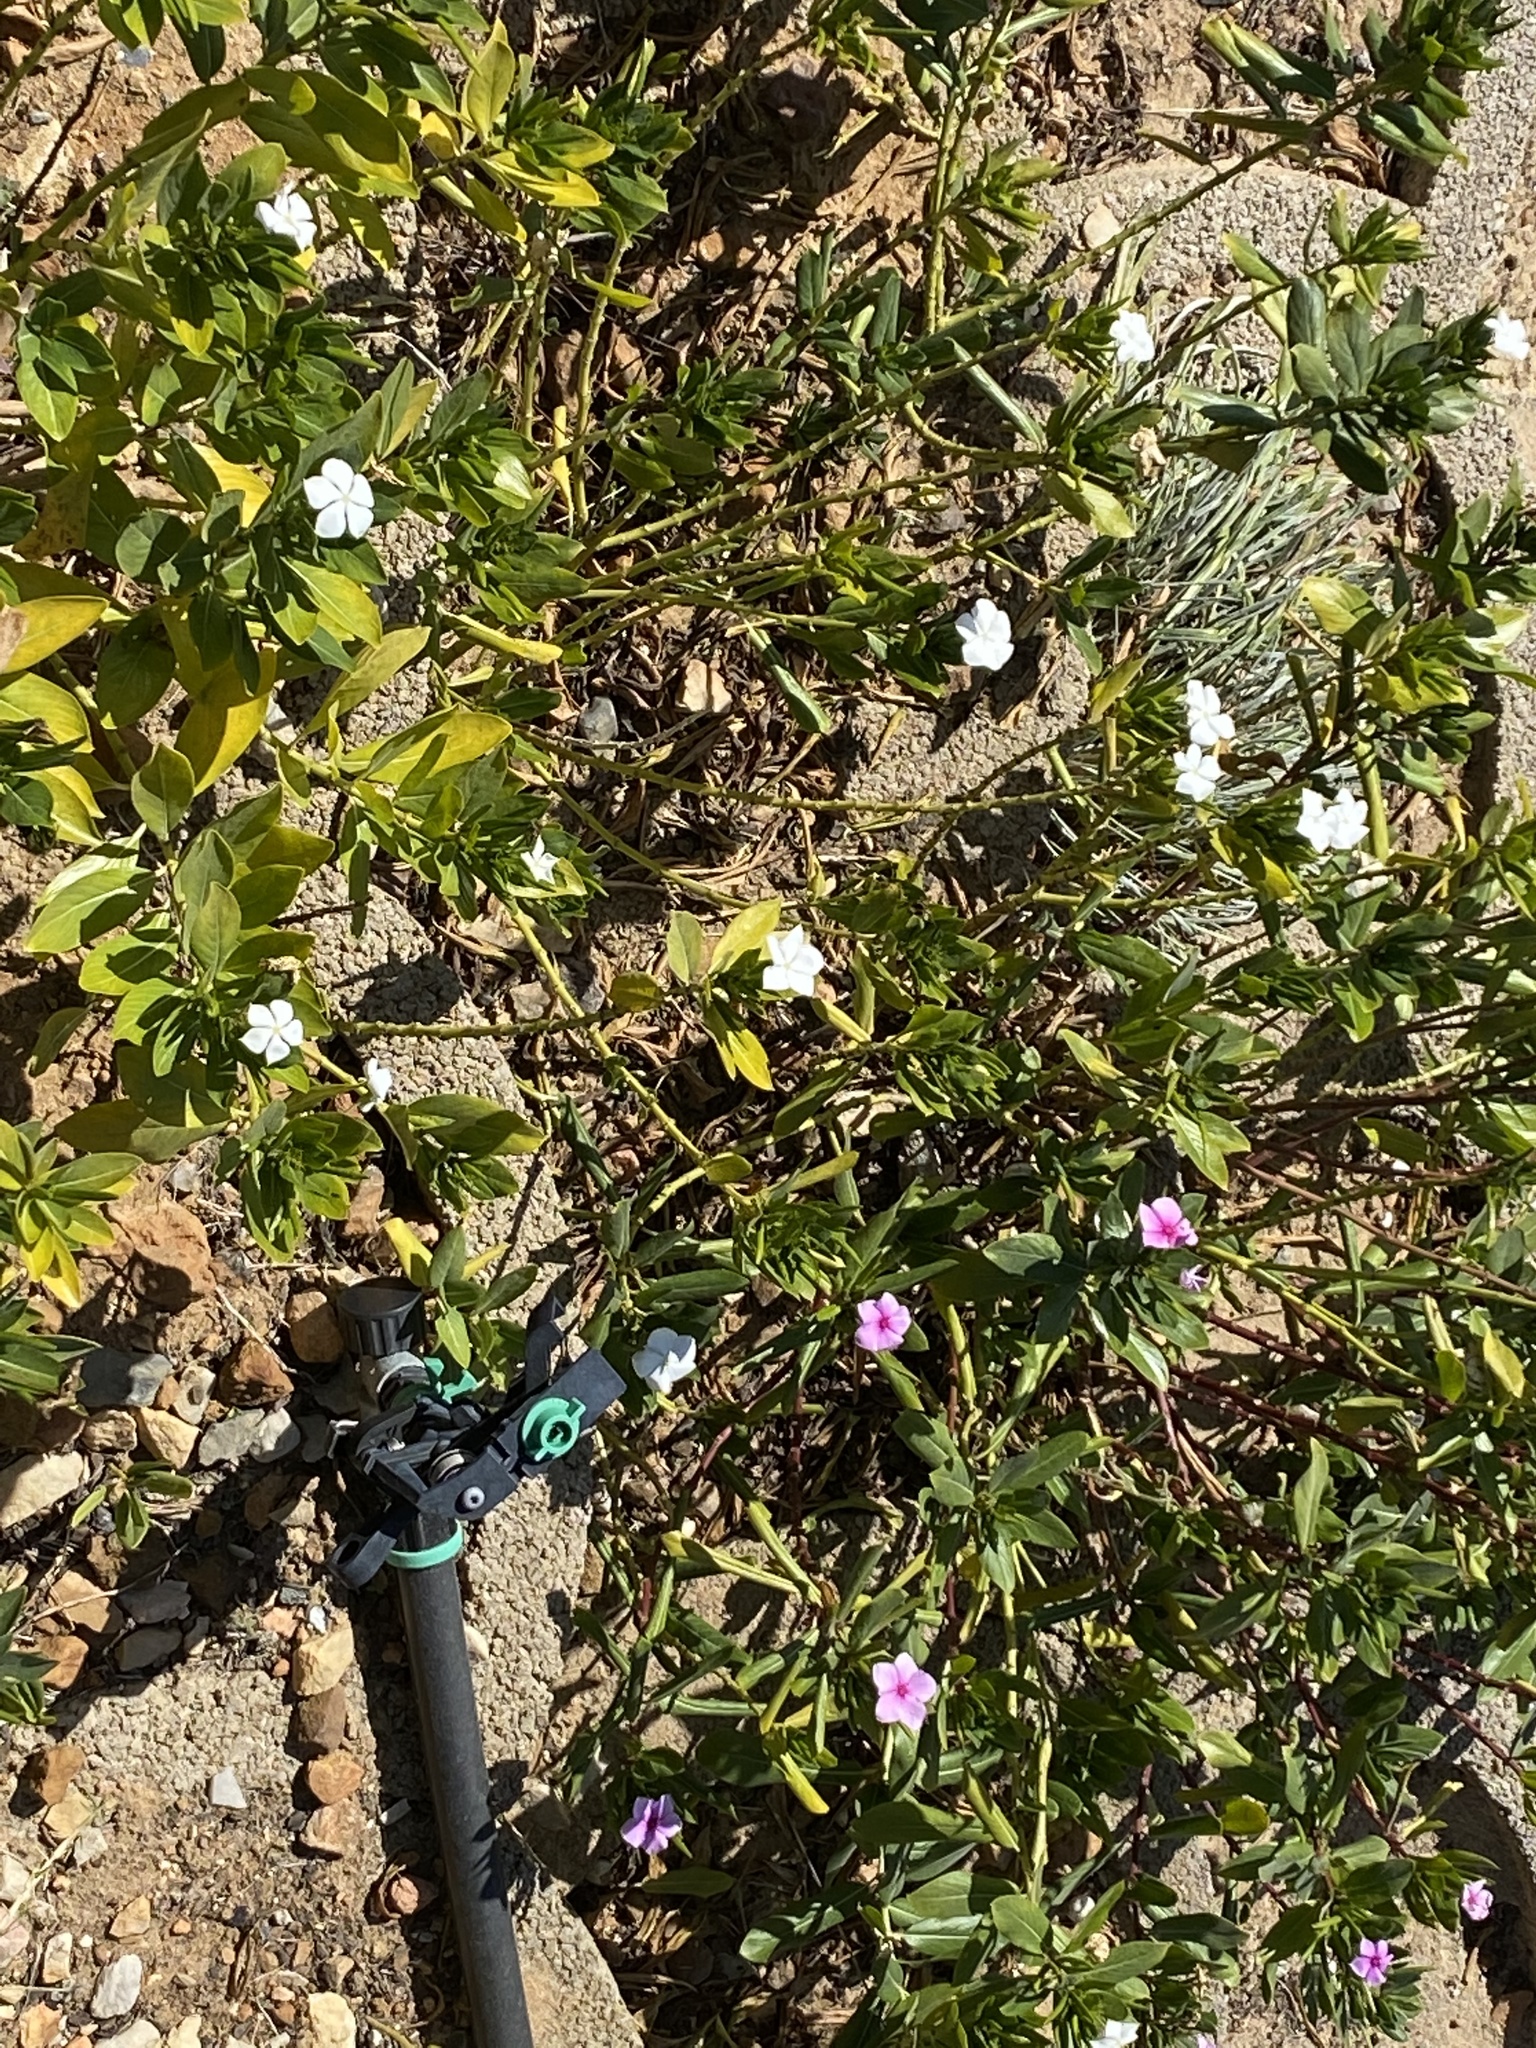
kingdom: Plantae
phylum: Tracheophyta
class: Magnoliopsida
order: Gentianales
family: Apocynaceae
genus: Catharanthus
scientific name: Catharanthus roseus
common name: Madagascar periwinkle
